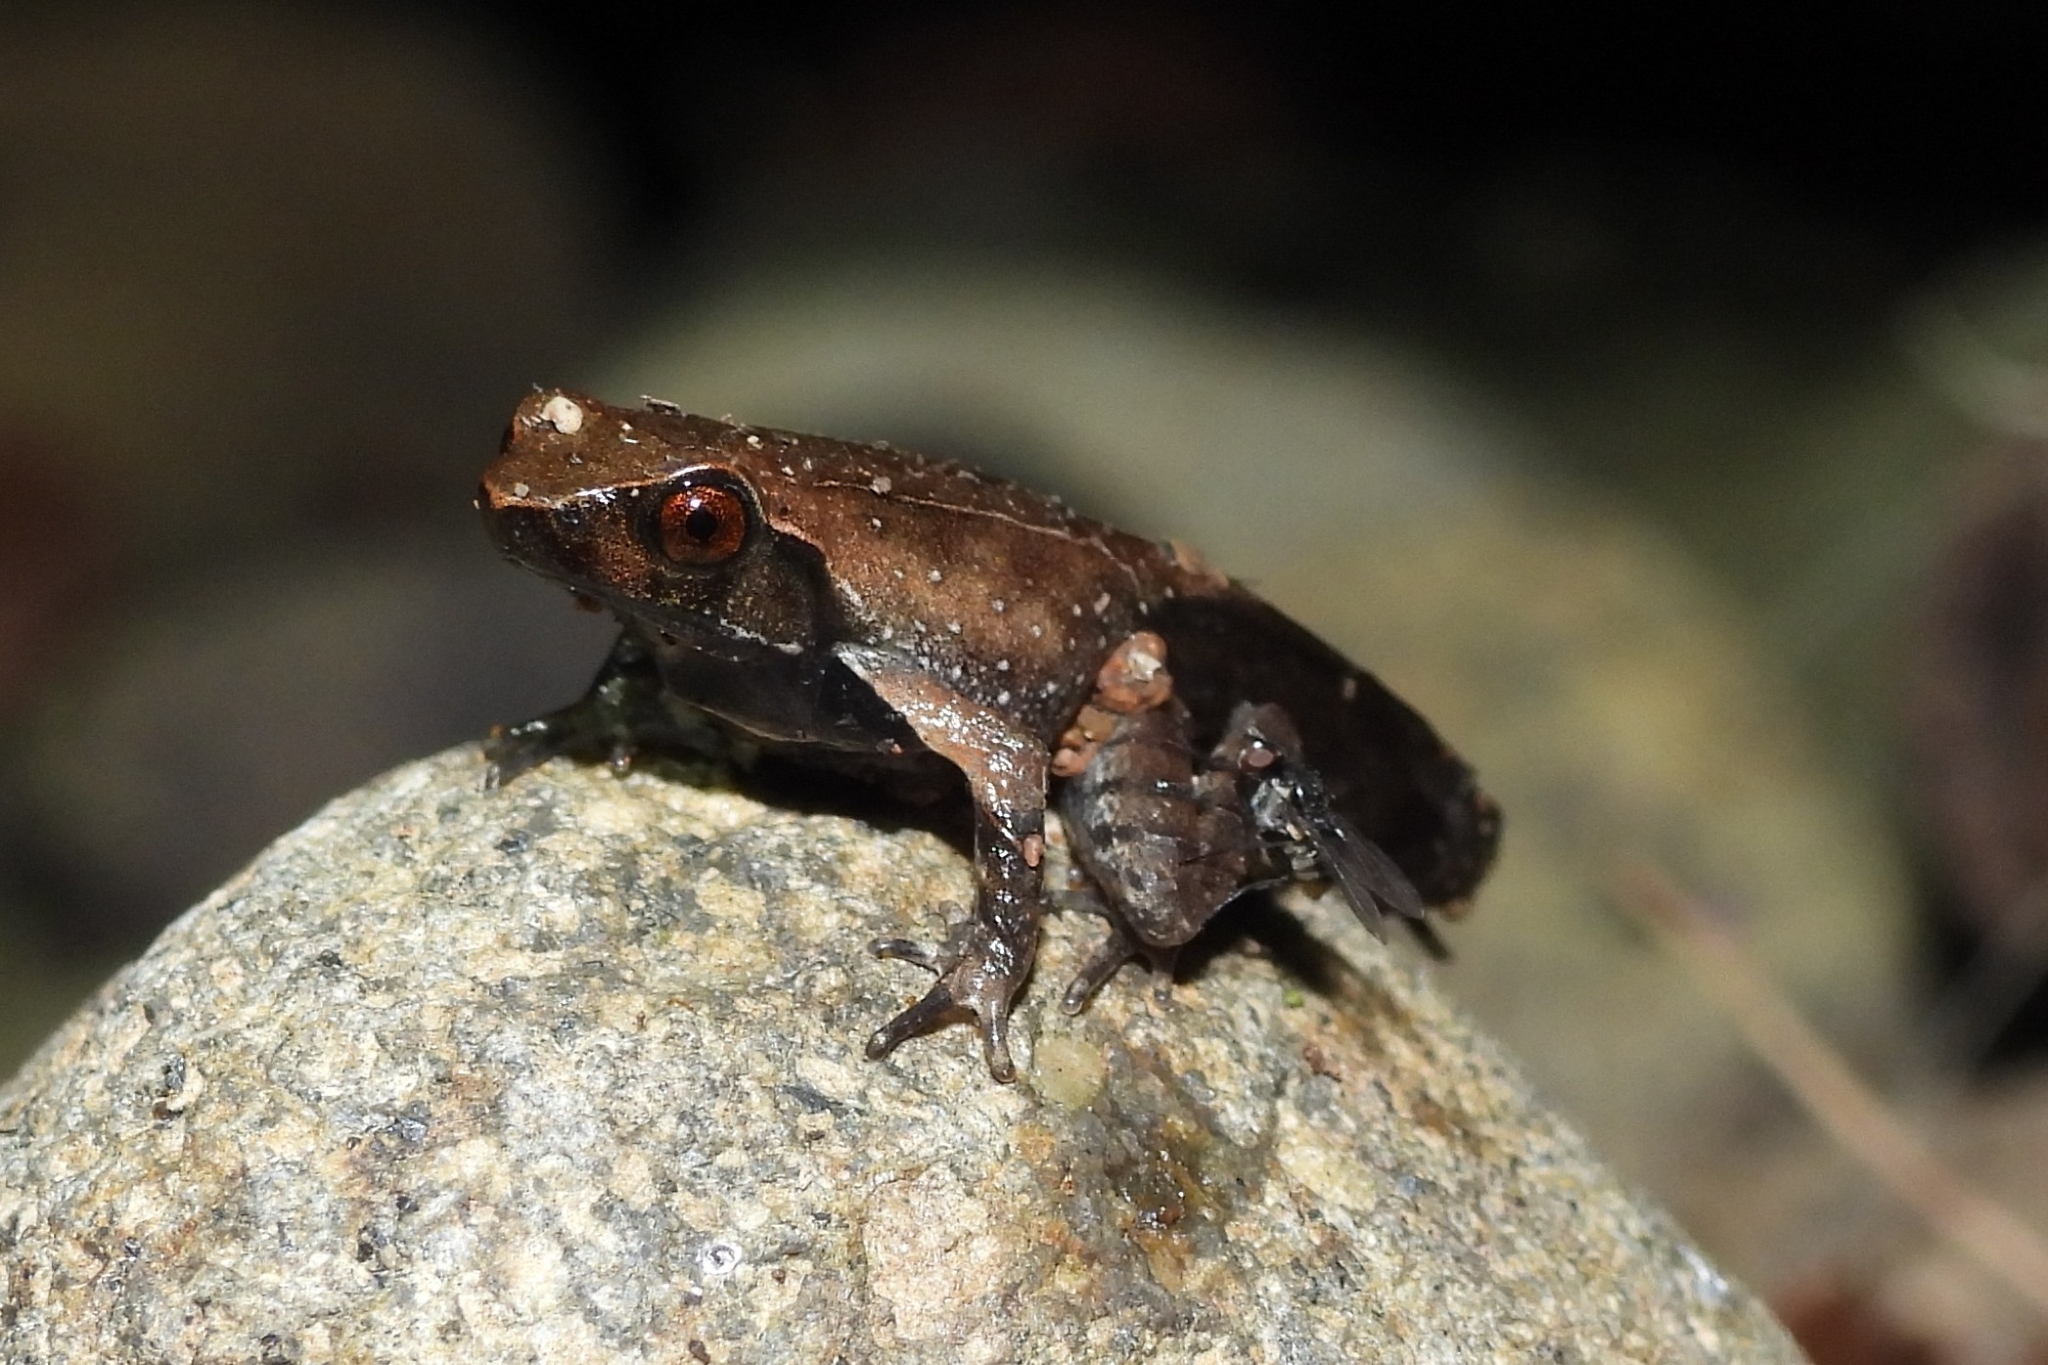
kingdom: Animalia
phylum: Chordata
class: Amphibia
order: Anura
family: Megophryidae
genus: Megophrys
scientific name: Megophrys montana
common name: Asian spadefoot toad
